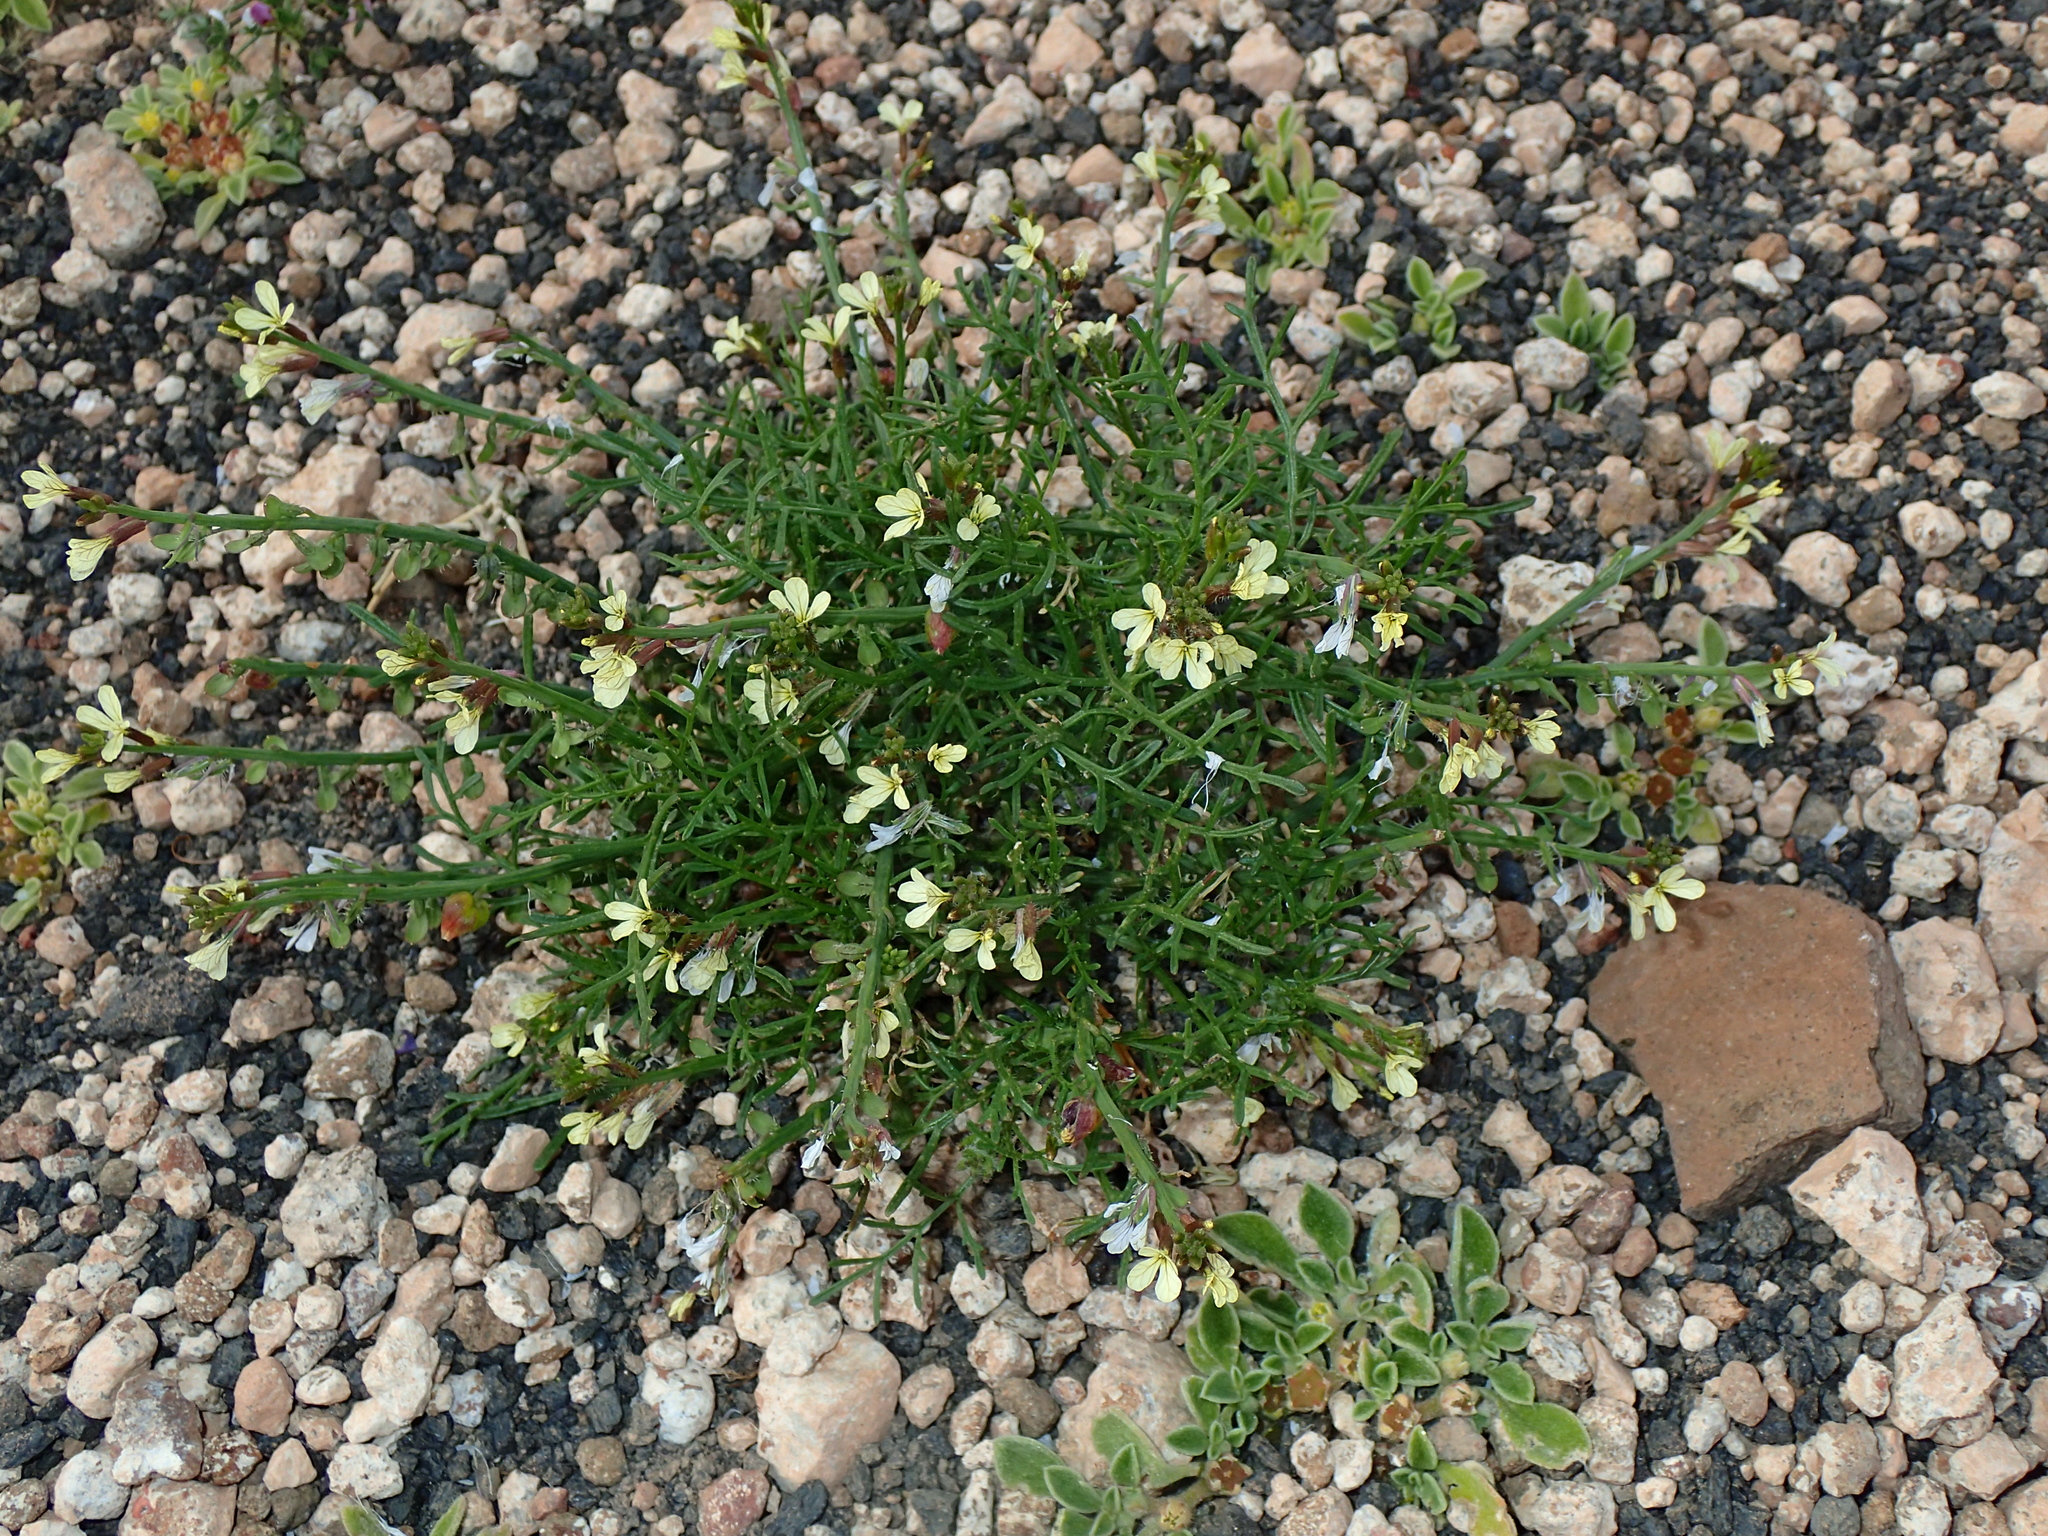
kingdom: Plantae
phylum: Tracheophyta
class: Magnoliopsida
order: Brassicales
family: Brassicaceae
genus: Carrichtera
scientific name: Carrichtera annua
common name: Cress rocket
